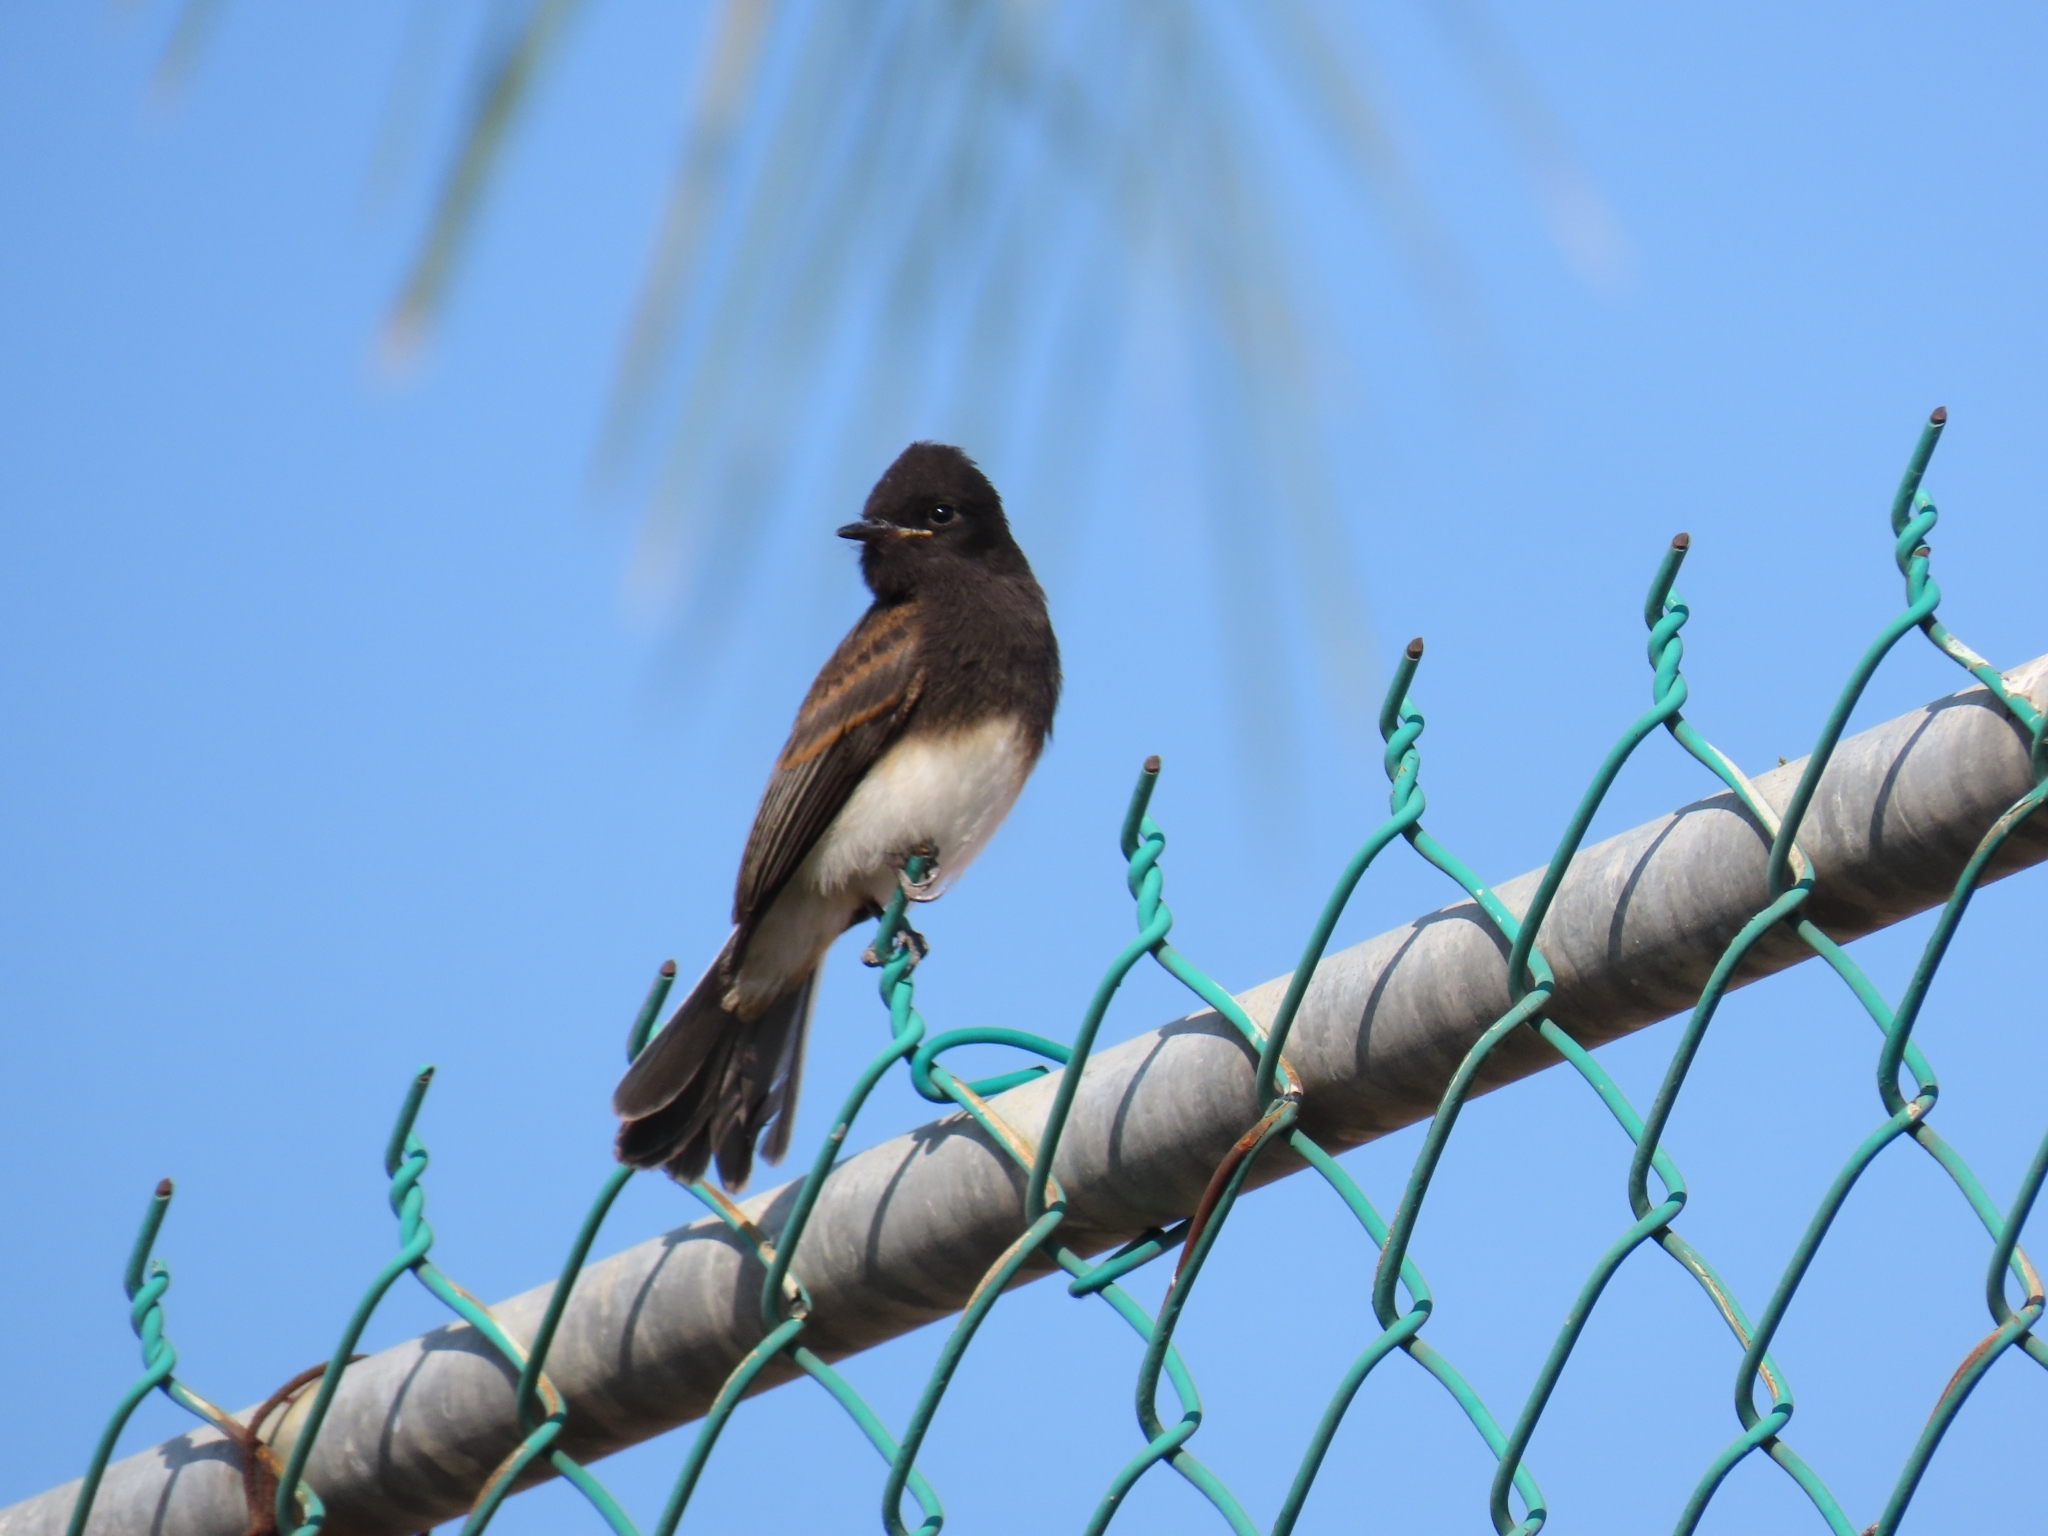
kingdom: Animalia
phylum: Chordata
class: Aves
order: Passeriformes
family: Tyrannidae
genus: Sayornis
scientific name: Sayornis nigricans
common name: Black phoebe
